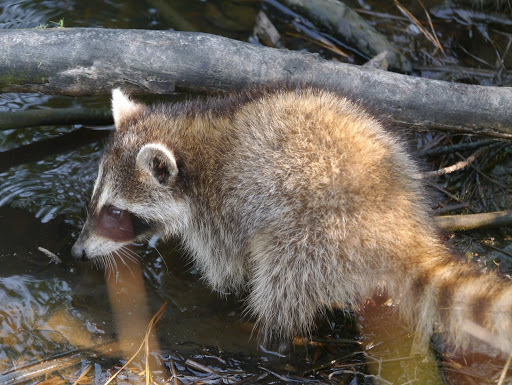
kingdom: Animalia
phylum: Chordata
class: Mammalia
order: Carnivora
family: Procyonidae
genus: Procyon
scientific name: Procyon lotor
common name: Raccoon
